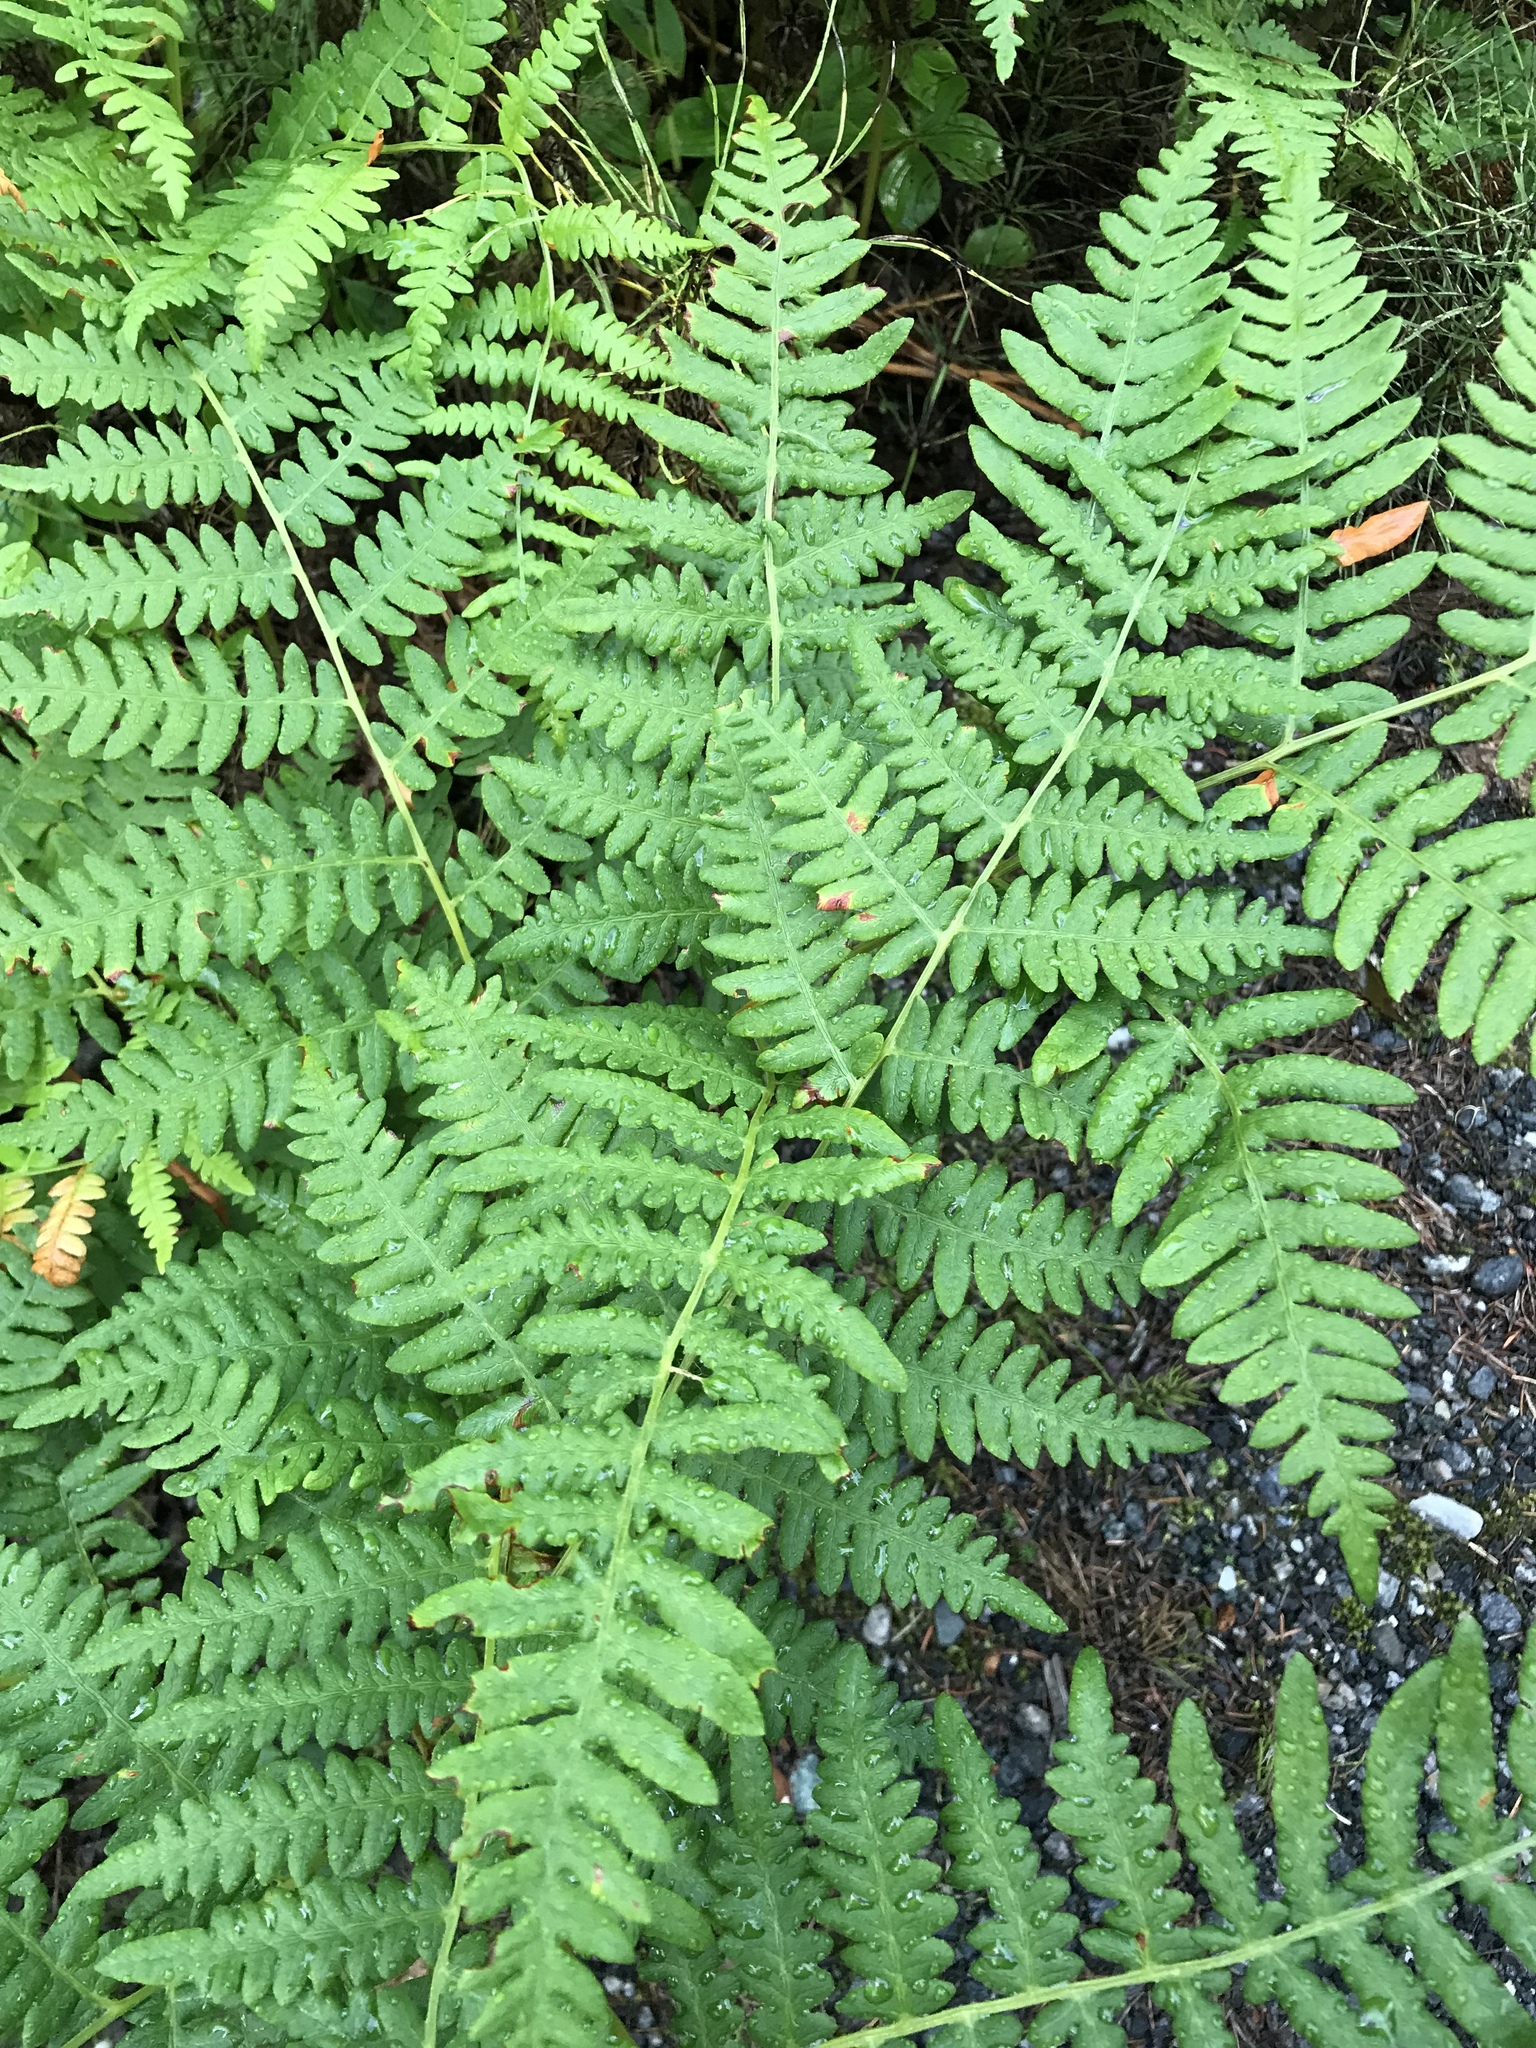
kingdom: Plantae
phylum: Tracheophyta
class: Polypodiopsida
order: Polypodiales
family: Dennstaedtiaceae
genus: Pteridium
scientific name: Pteridium aquilinum
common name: Bracken
